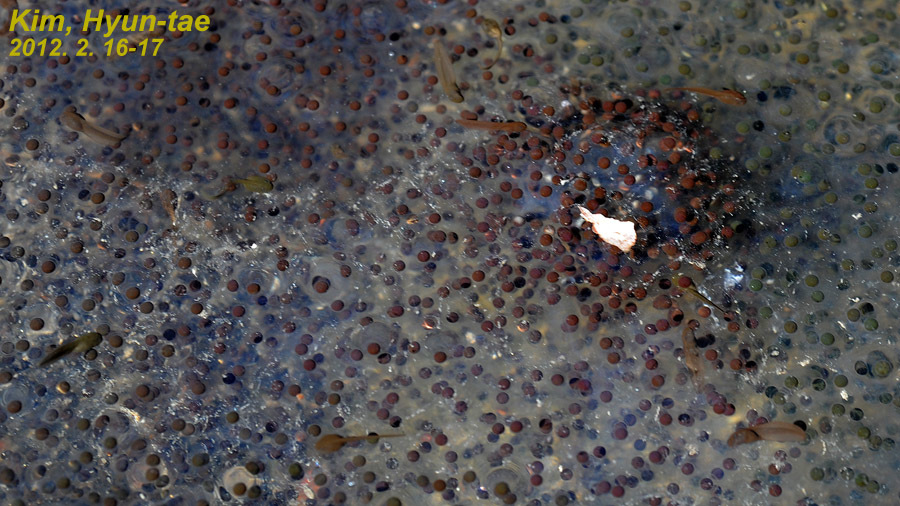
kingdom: Animalia
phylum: Chordata
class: Amphibia
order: Anura
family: Ranidae
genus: Rana
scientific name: Rana uenoi
